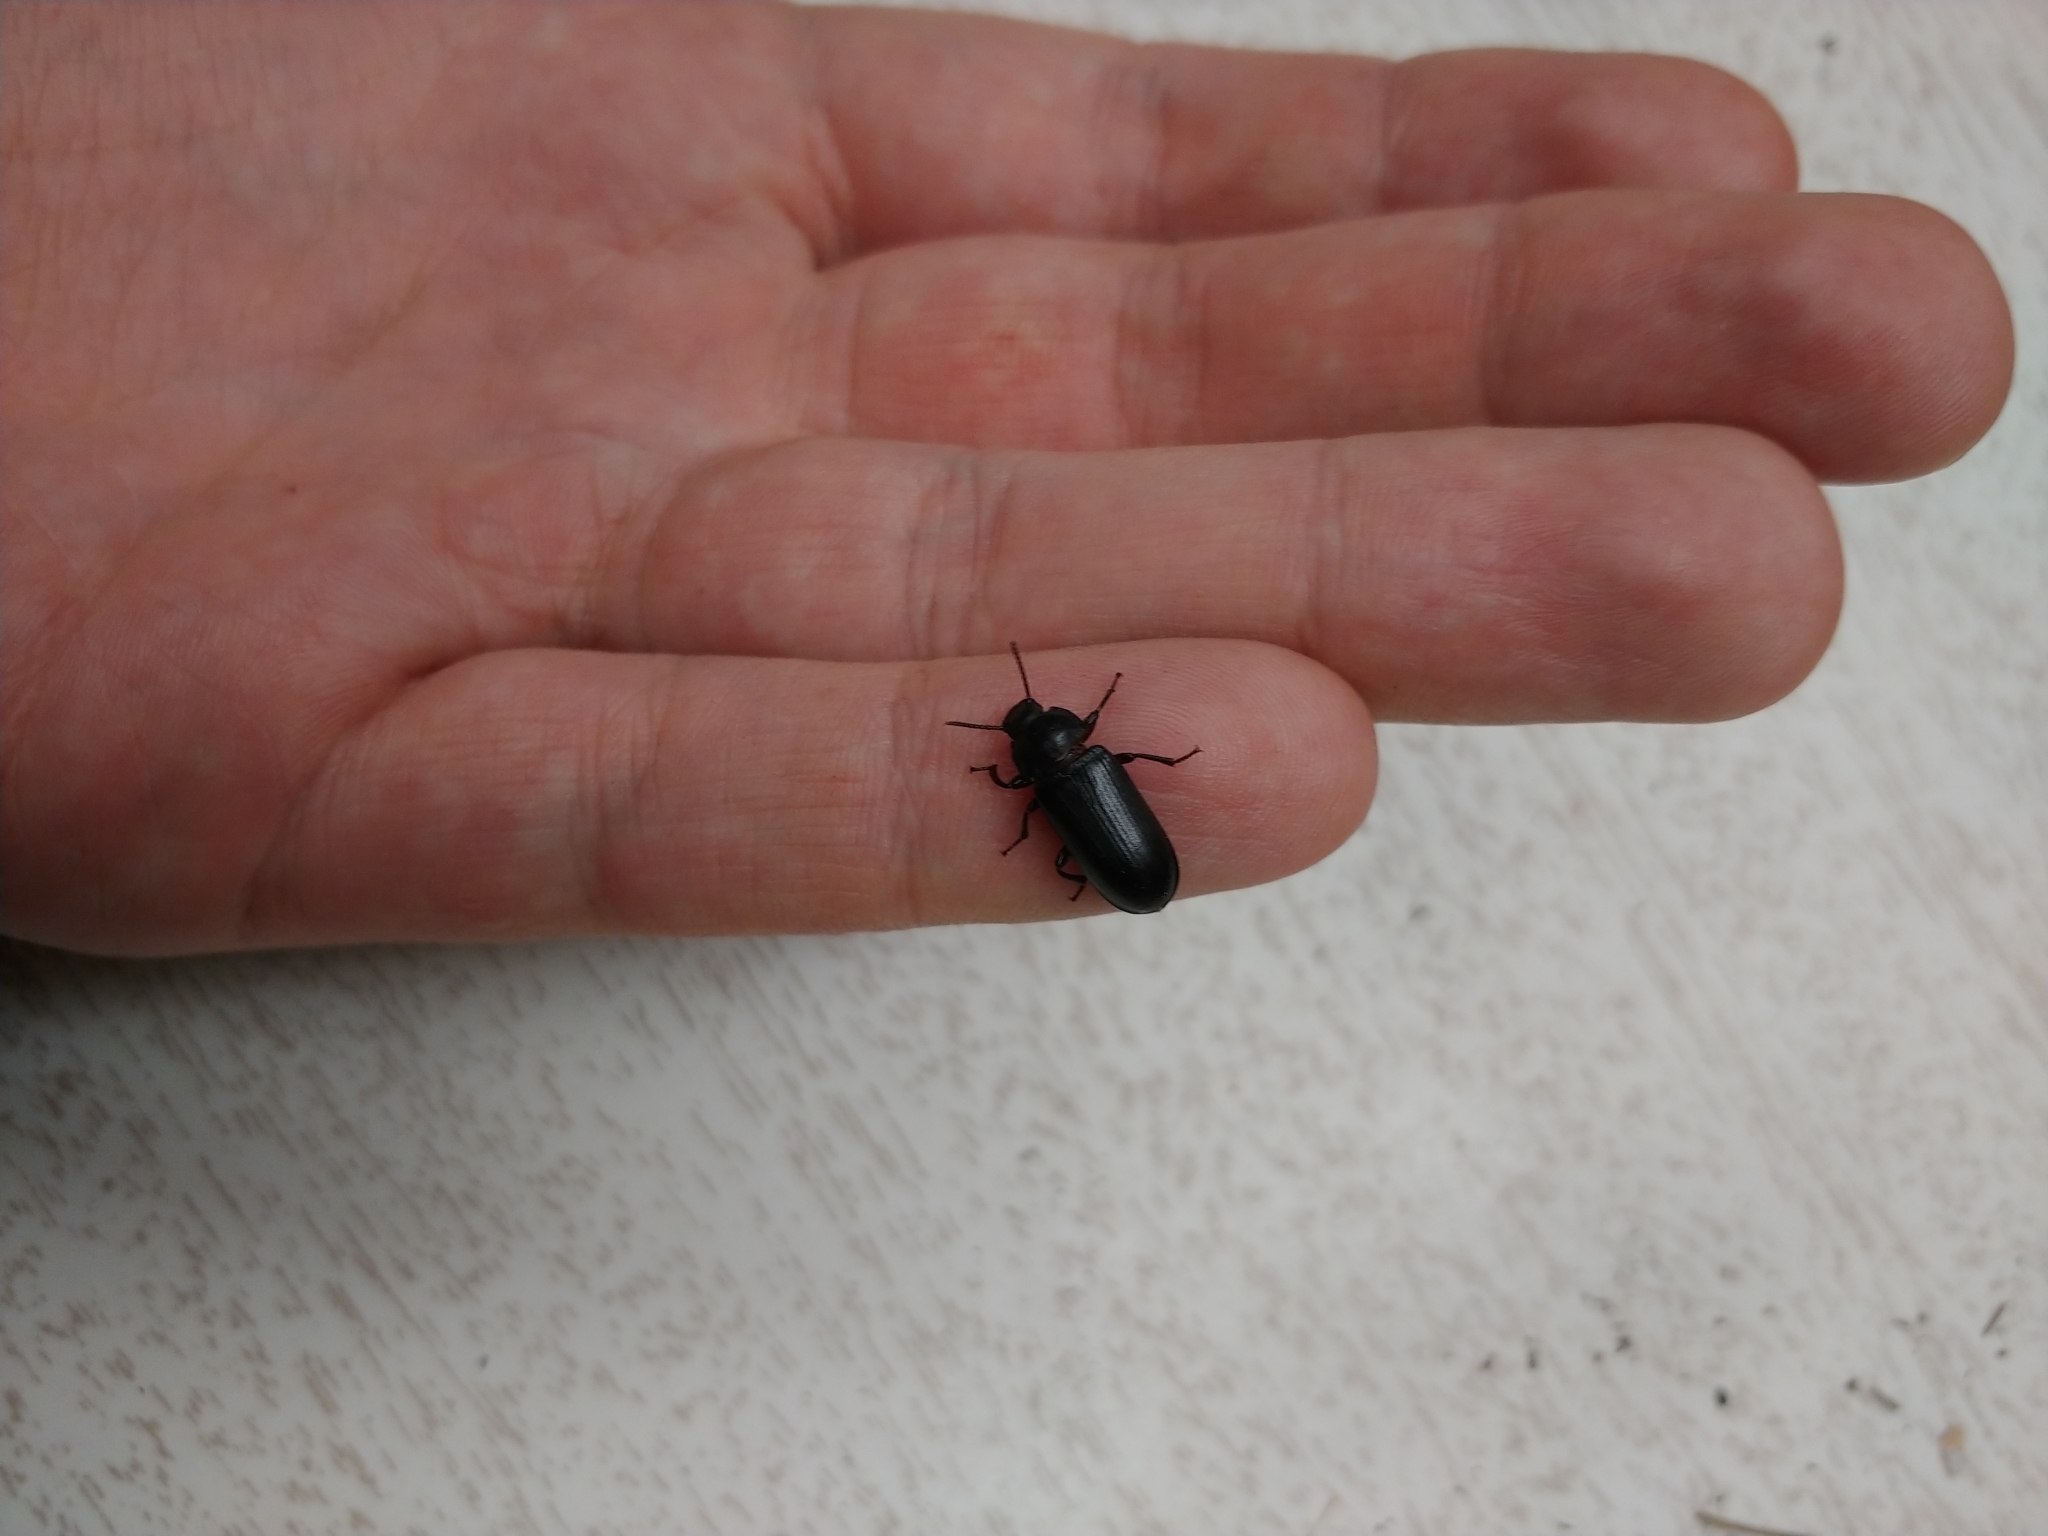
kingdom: Animalia
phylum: Arthropoda
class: Insecta
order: Coleoptera
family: Tenebrionidae
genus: Tenebrio
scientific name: Tenebrio molitor
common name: Hardback beetle
